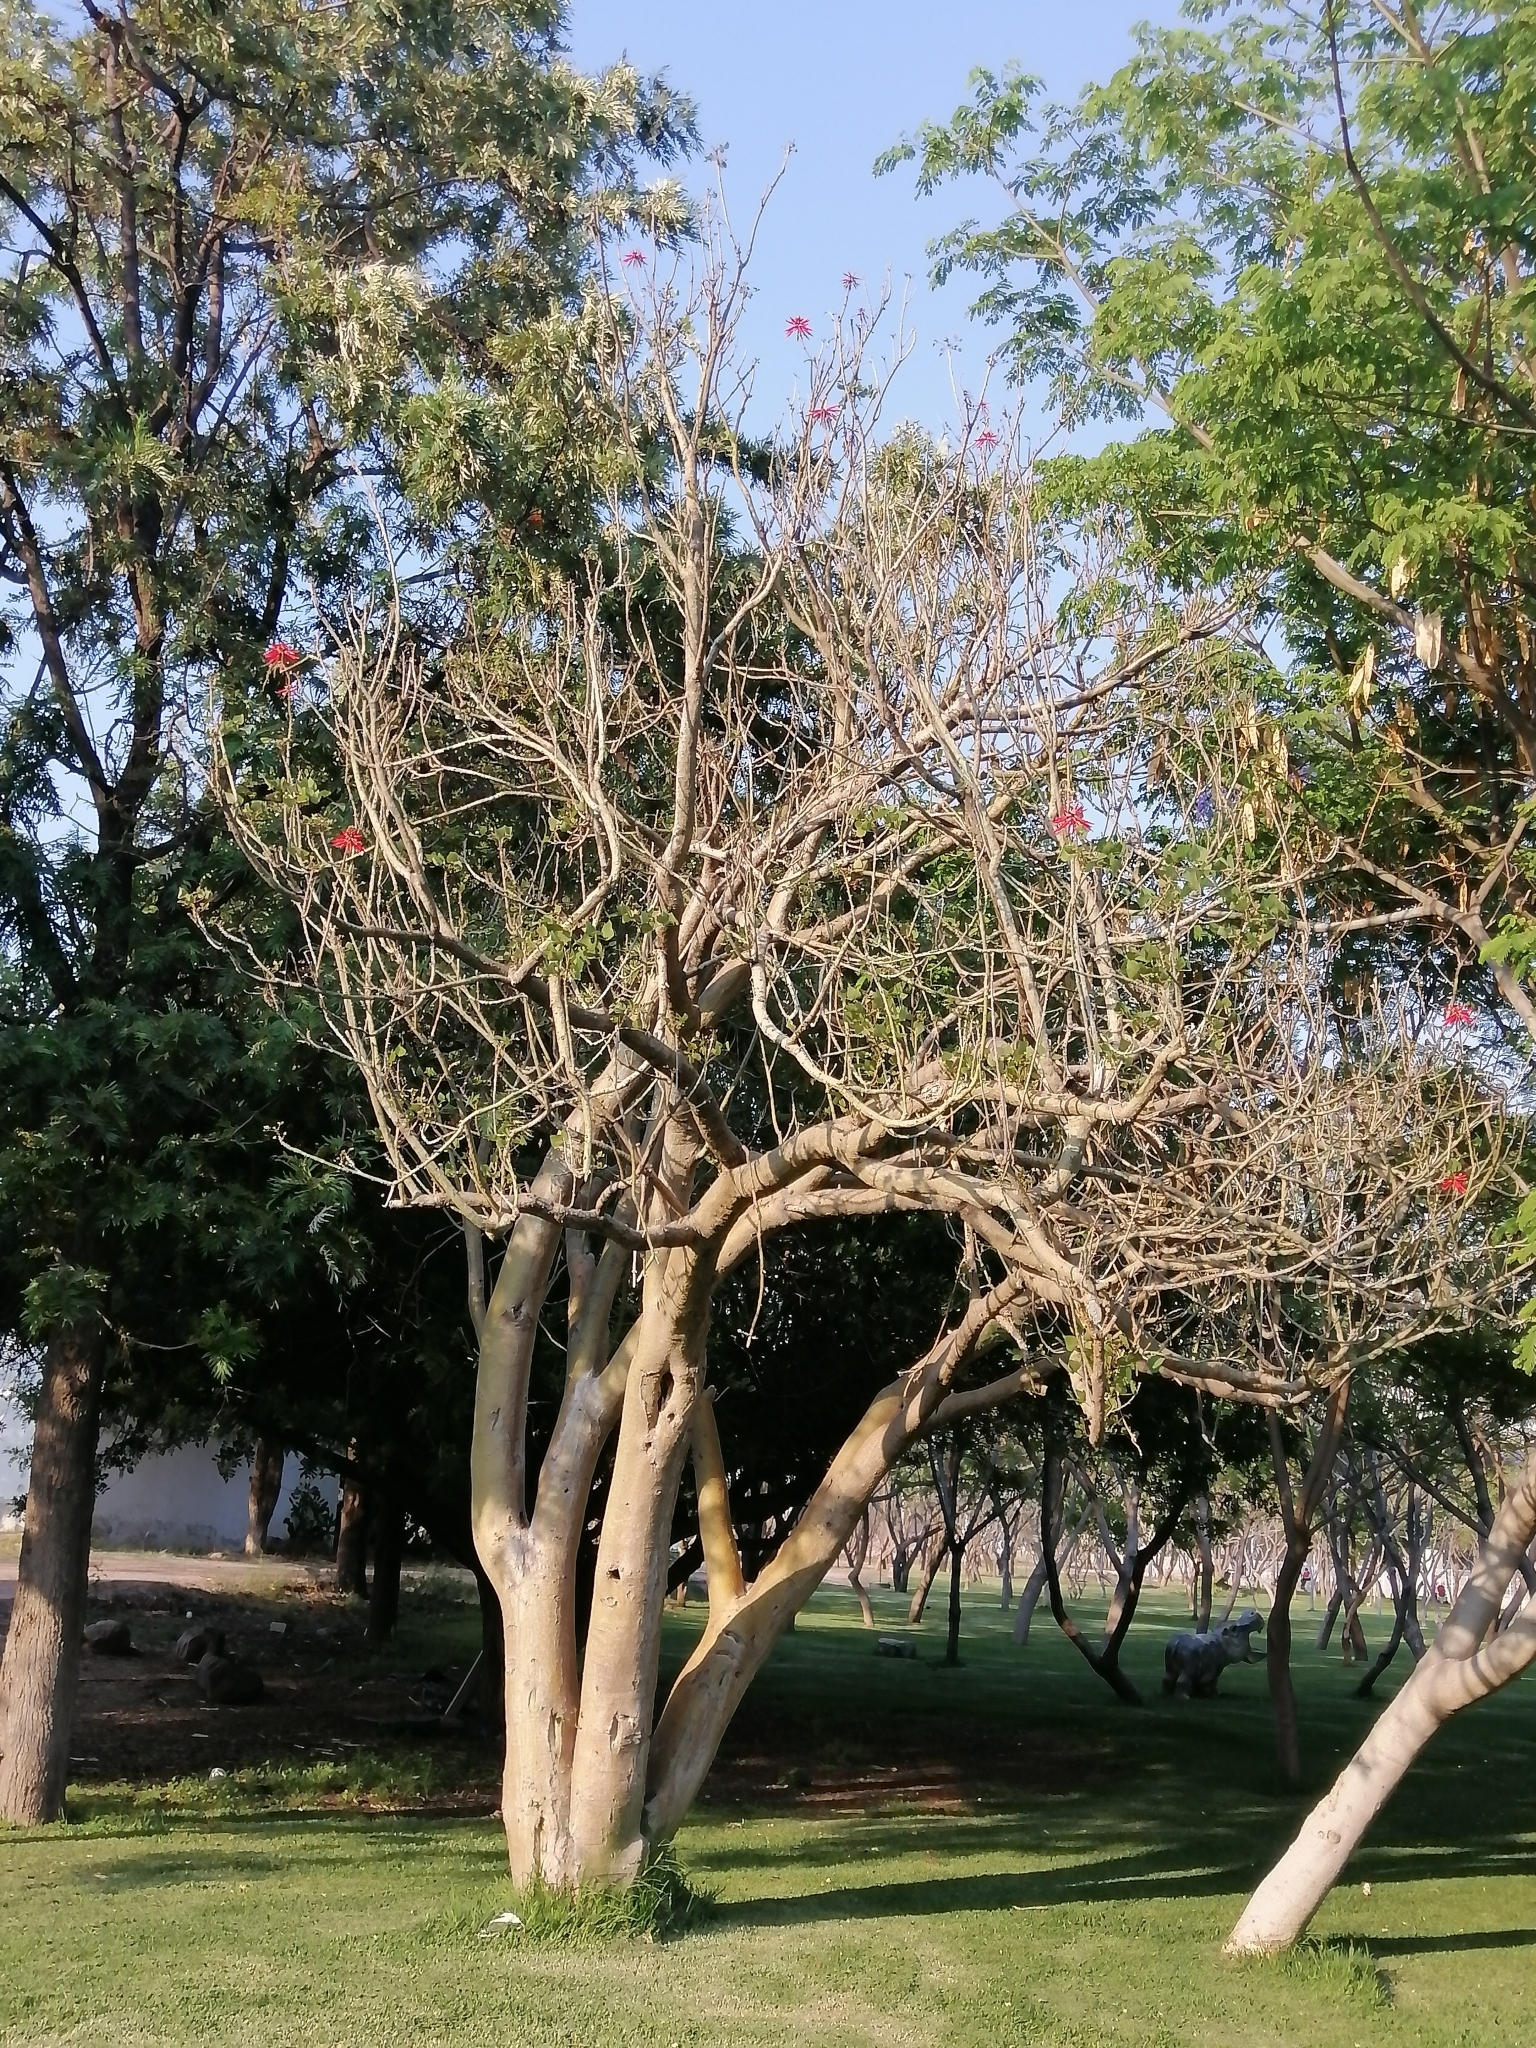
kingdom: Plantae
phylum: Tracheophyta
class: Magnoliopsida
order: Fabales
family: Fabaceae
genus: Erythrina
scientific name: Erythrina americana
